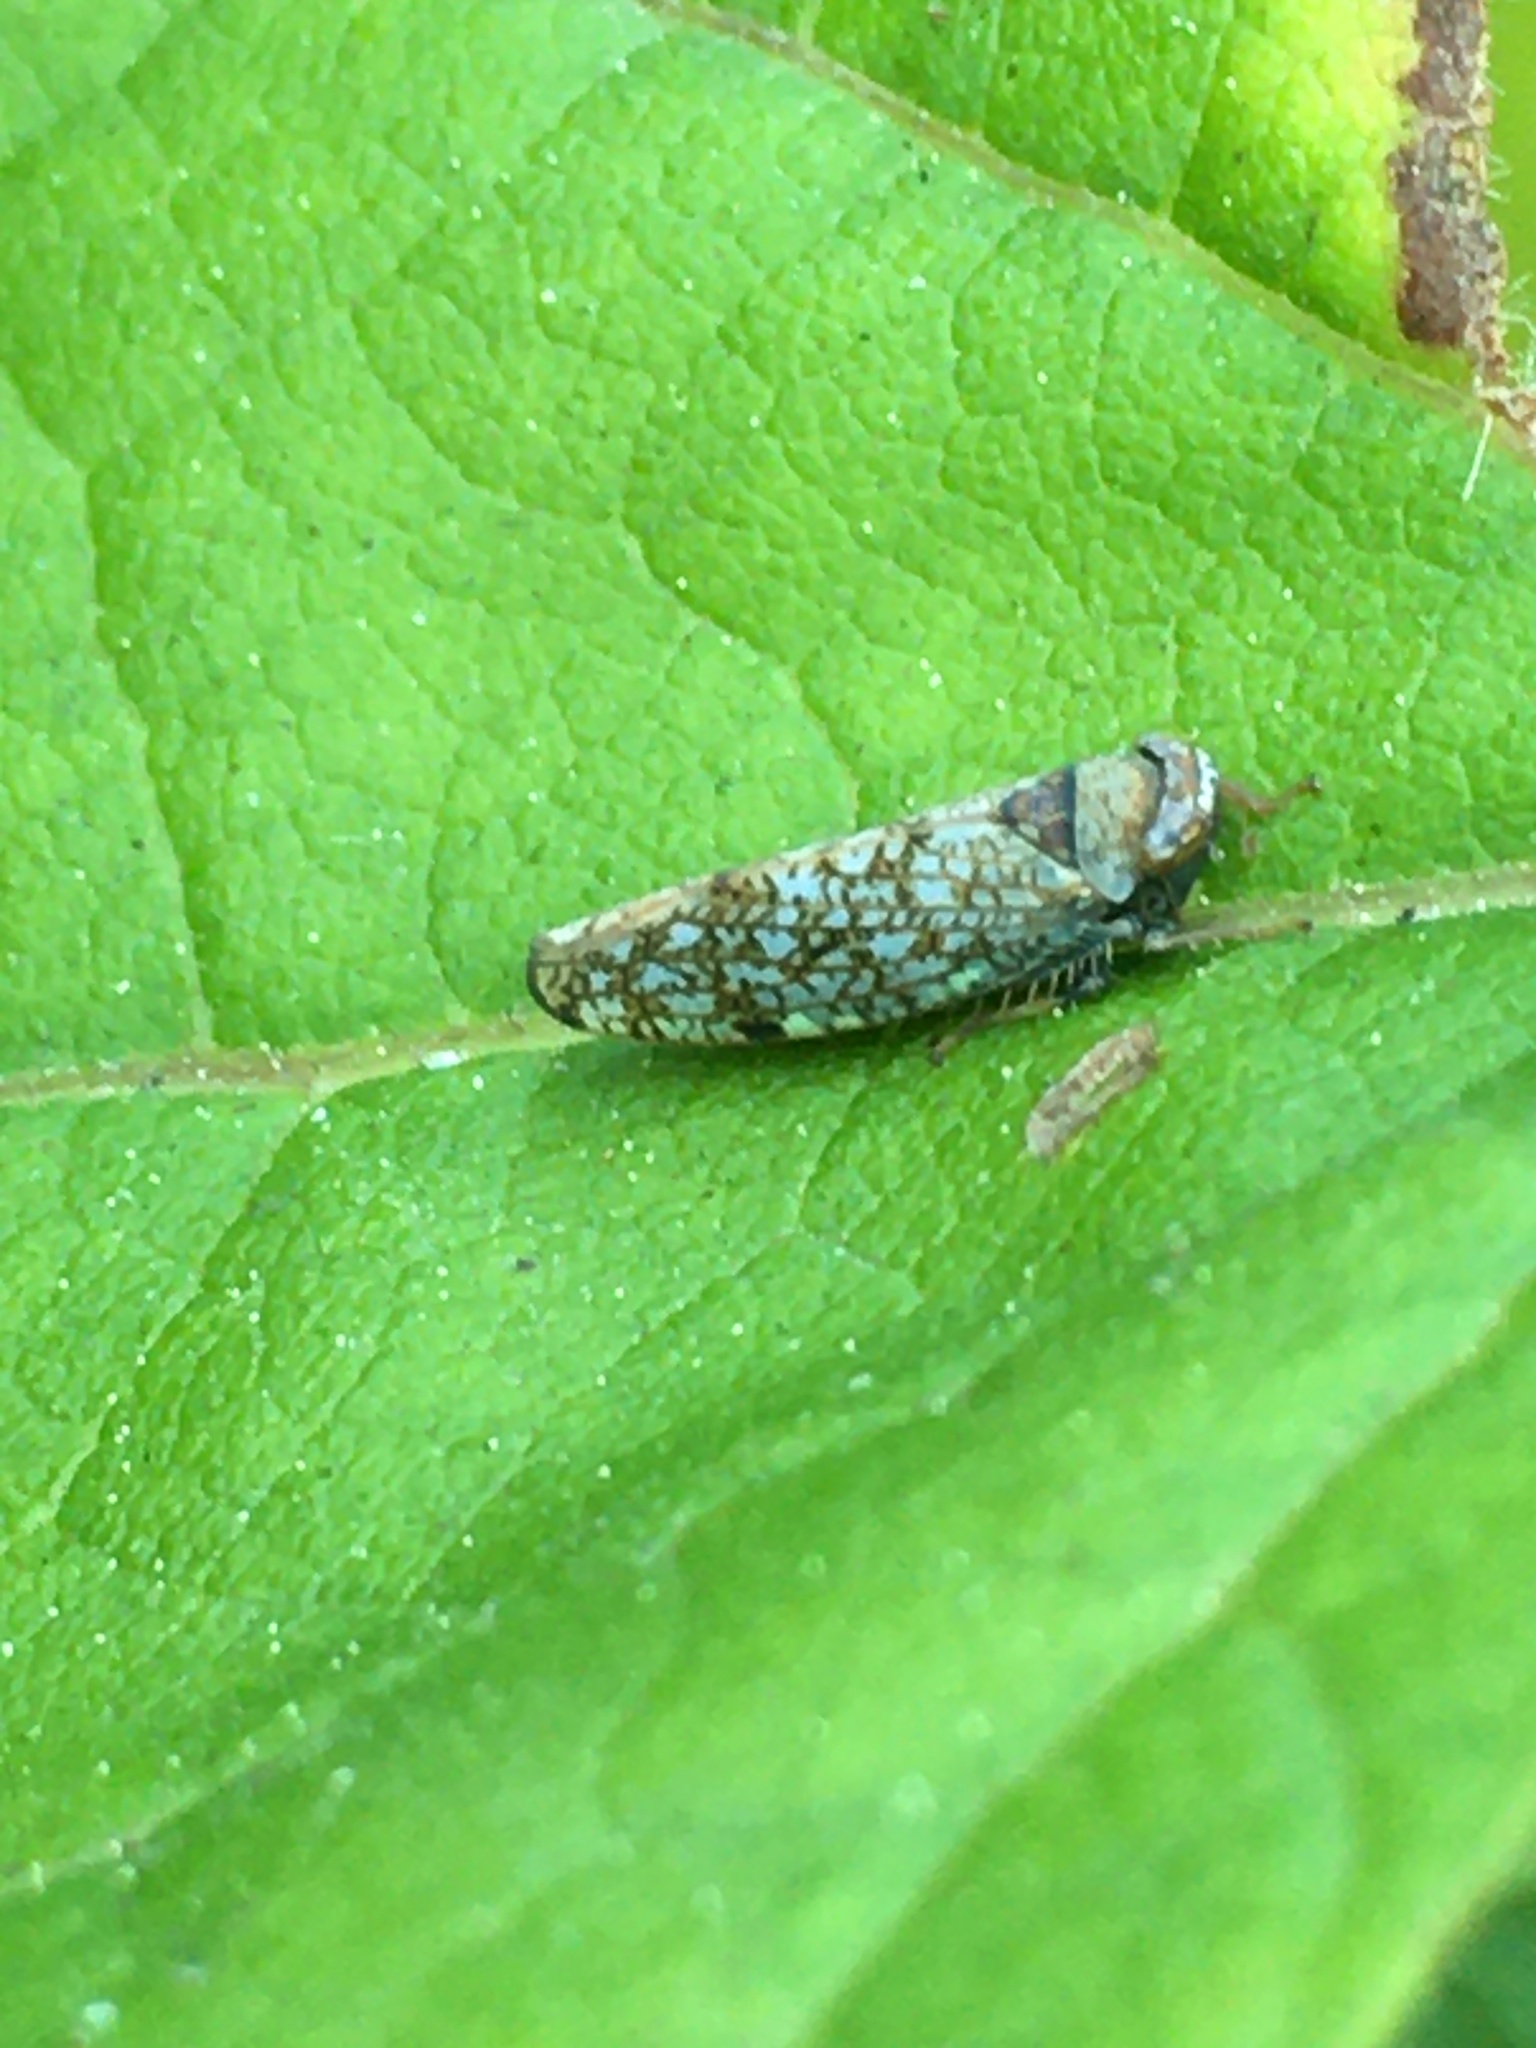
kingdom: Animalia
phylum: Arthropoda
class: Insecta
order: Hemiptera
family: Cicadellidae
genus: Orientus
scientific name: Orientus ishidae
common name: Japanese leafhopper
